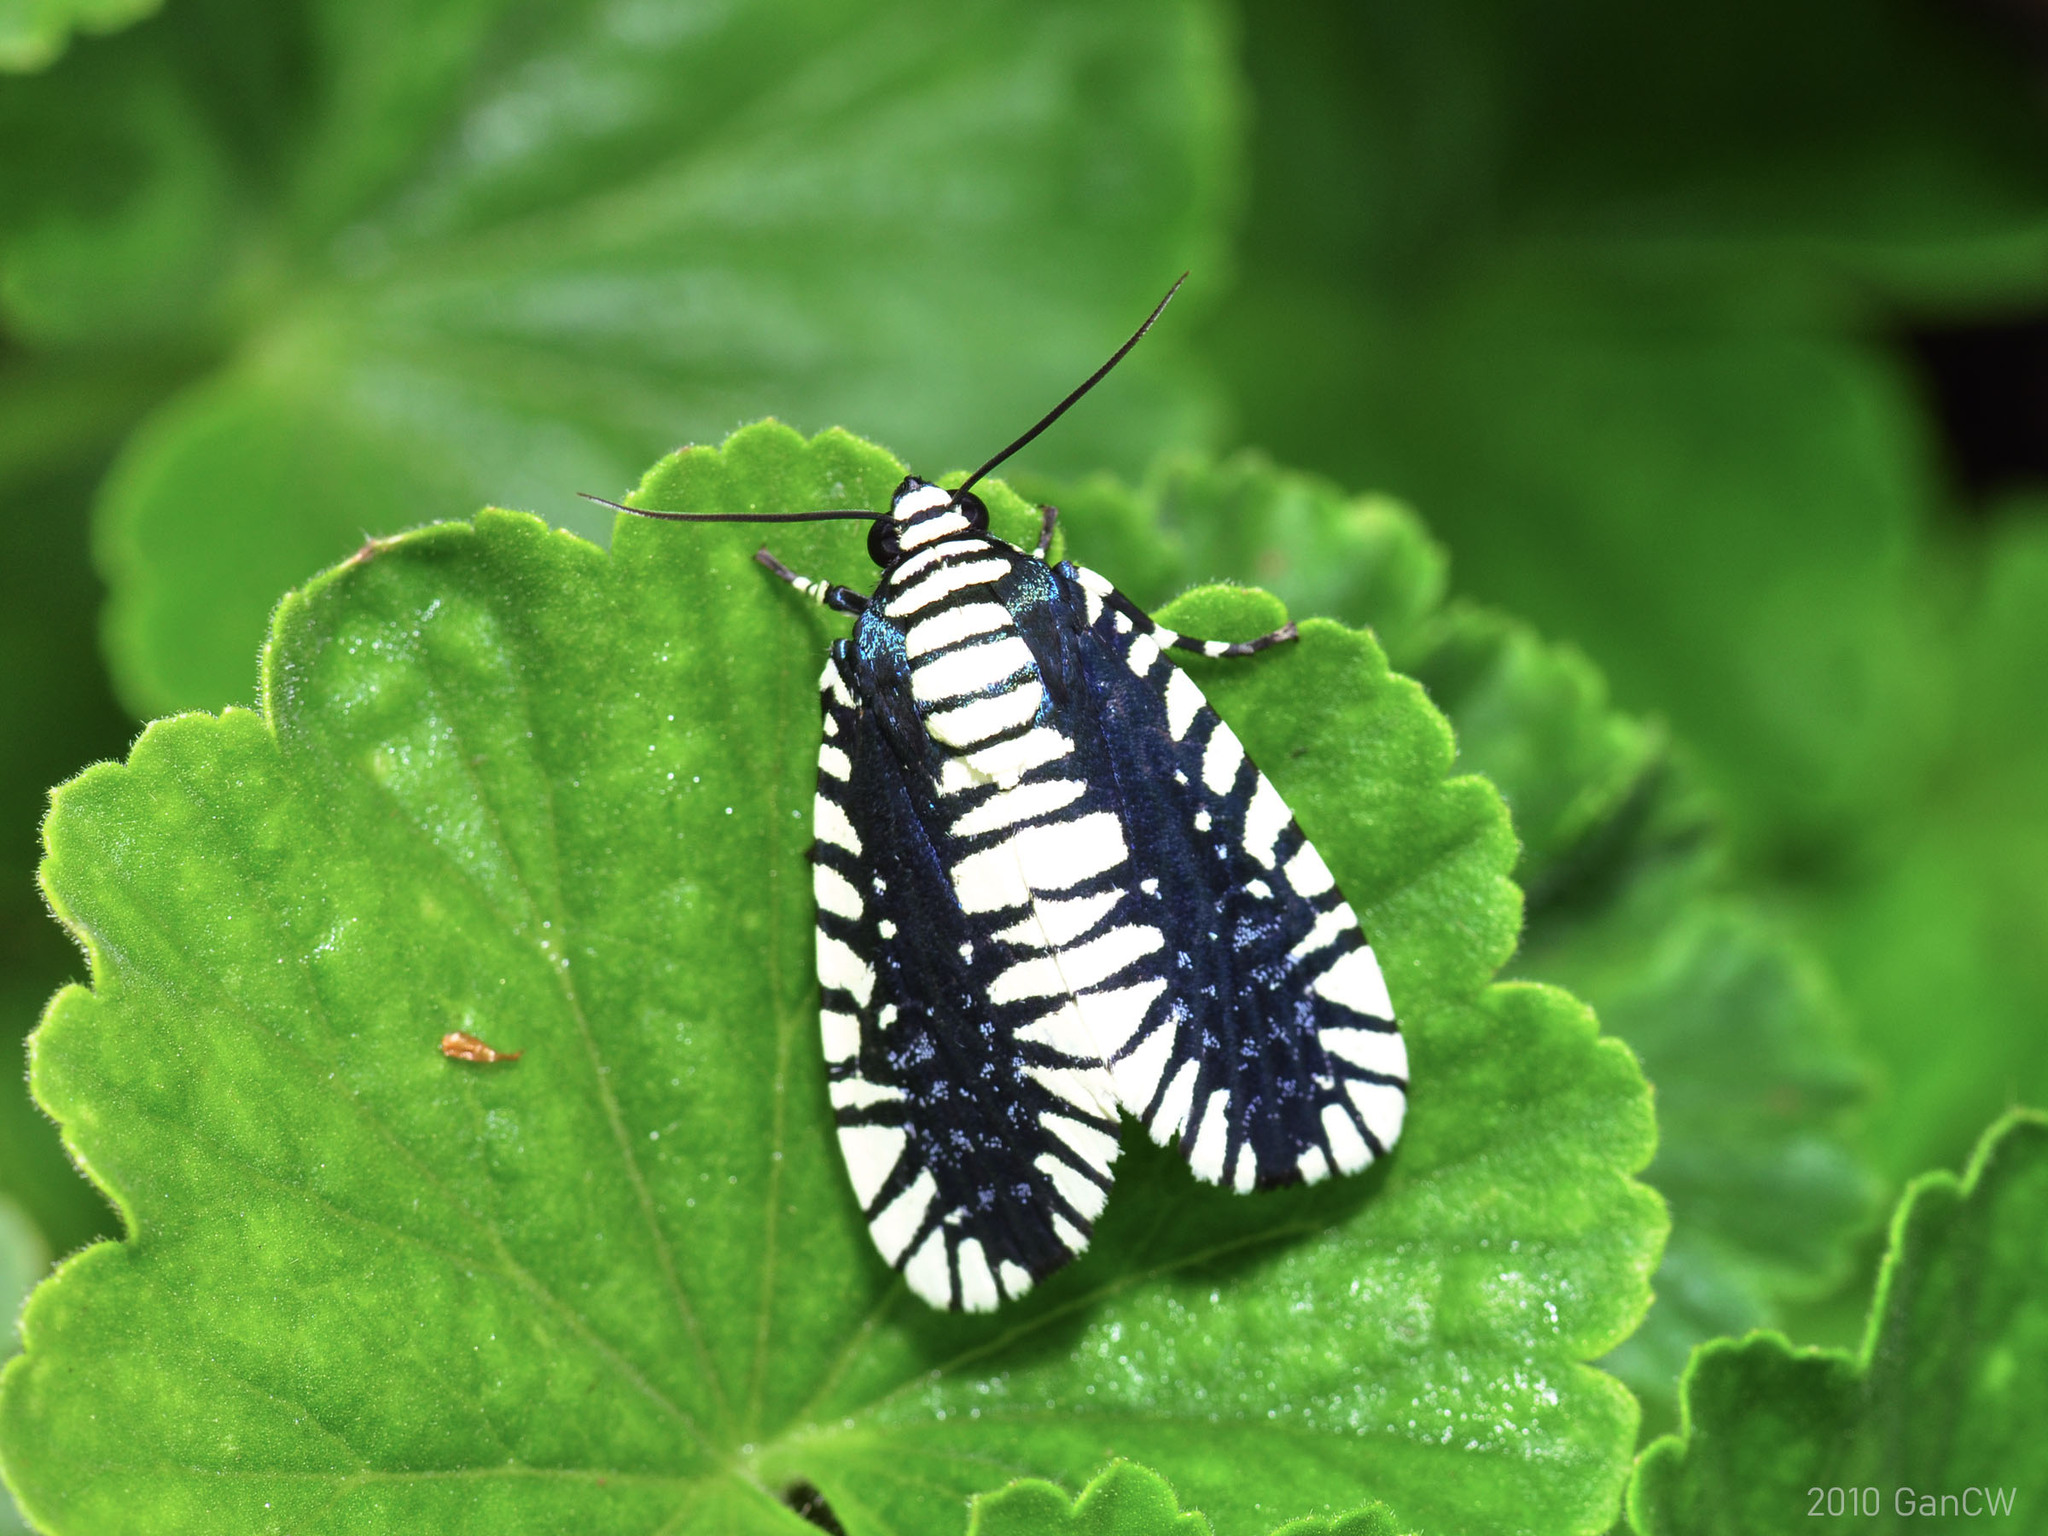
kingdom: Animalia
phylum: Arthropoda
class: Insecta
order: Lepidoptera
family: Noctuidae
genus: Apsarasa
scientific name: Apsarasa radians
